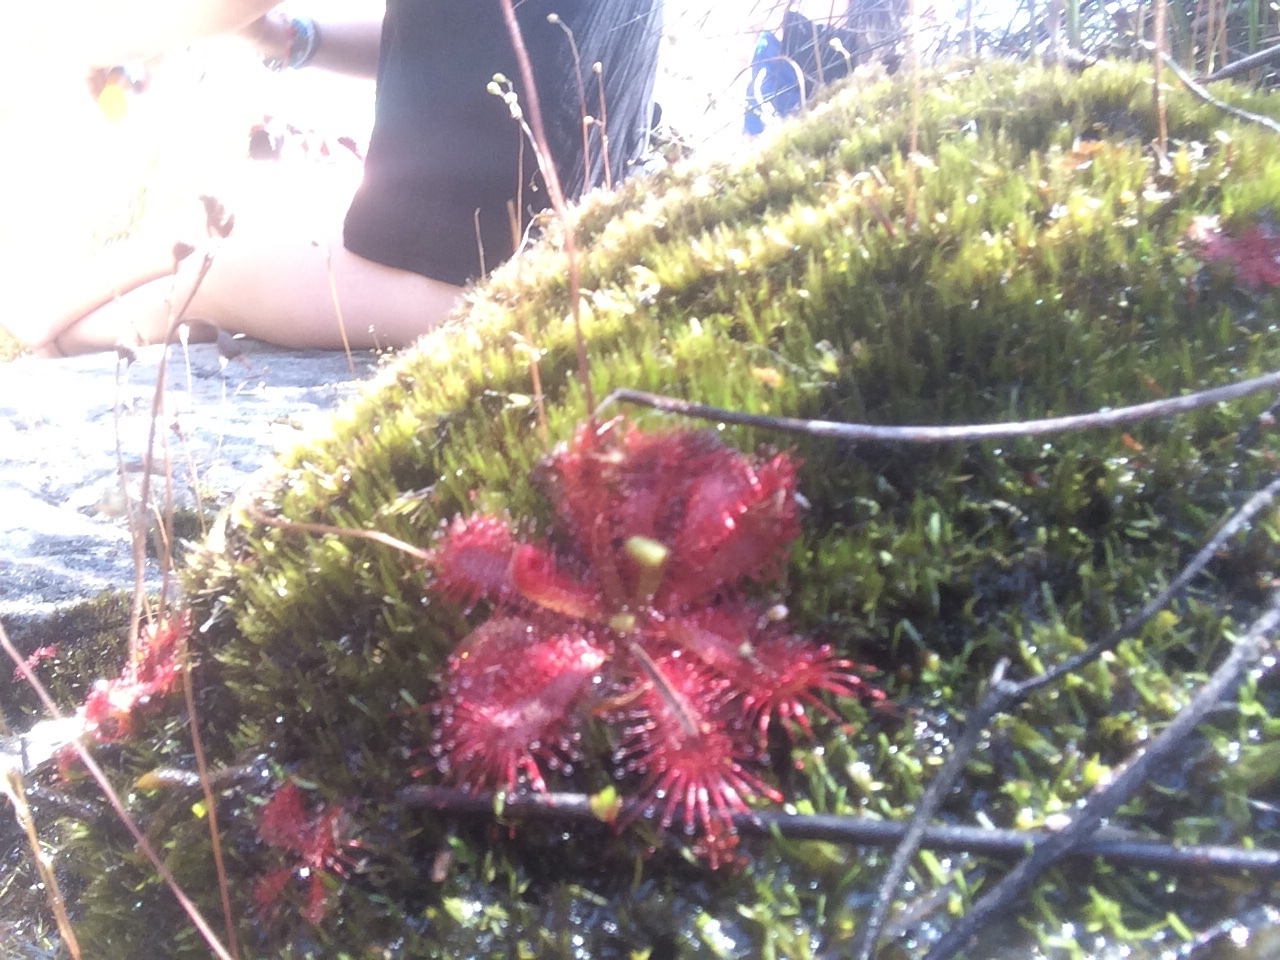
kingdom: Plantae
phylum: Tracheophyta
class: Magnoliopsida
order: Caryophyllales
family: Droseraceae
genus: Drosera
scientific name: Drosera trinervia
